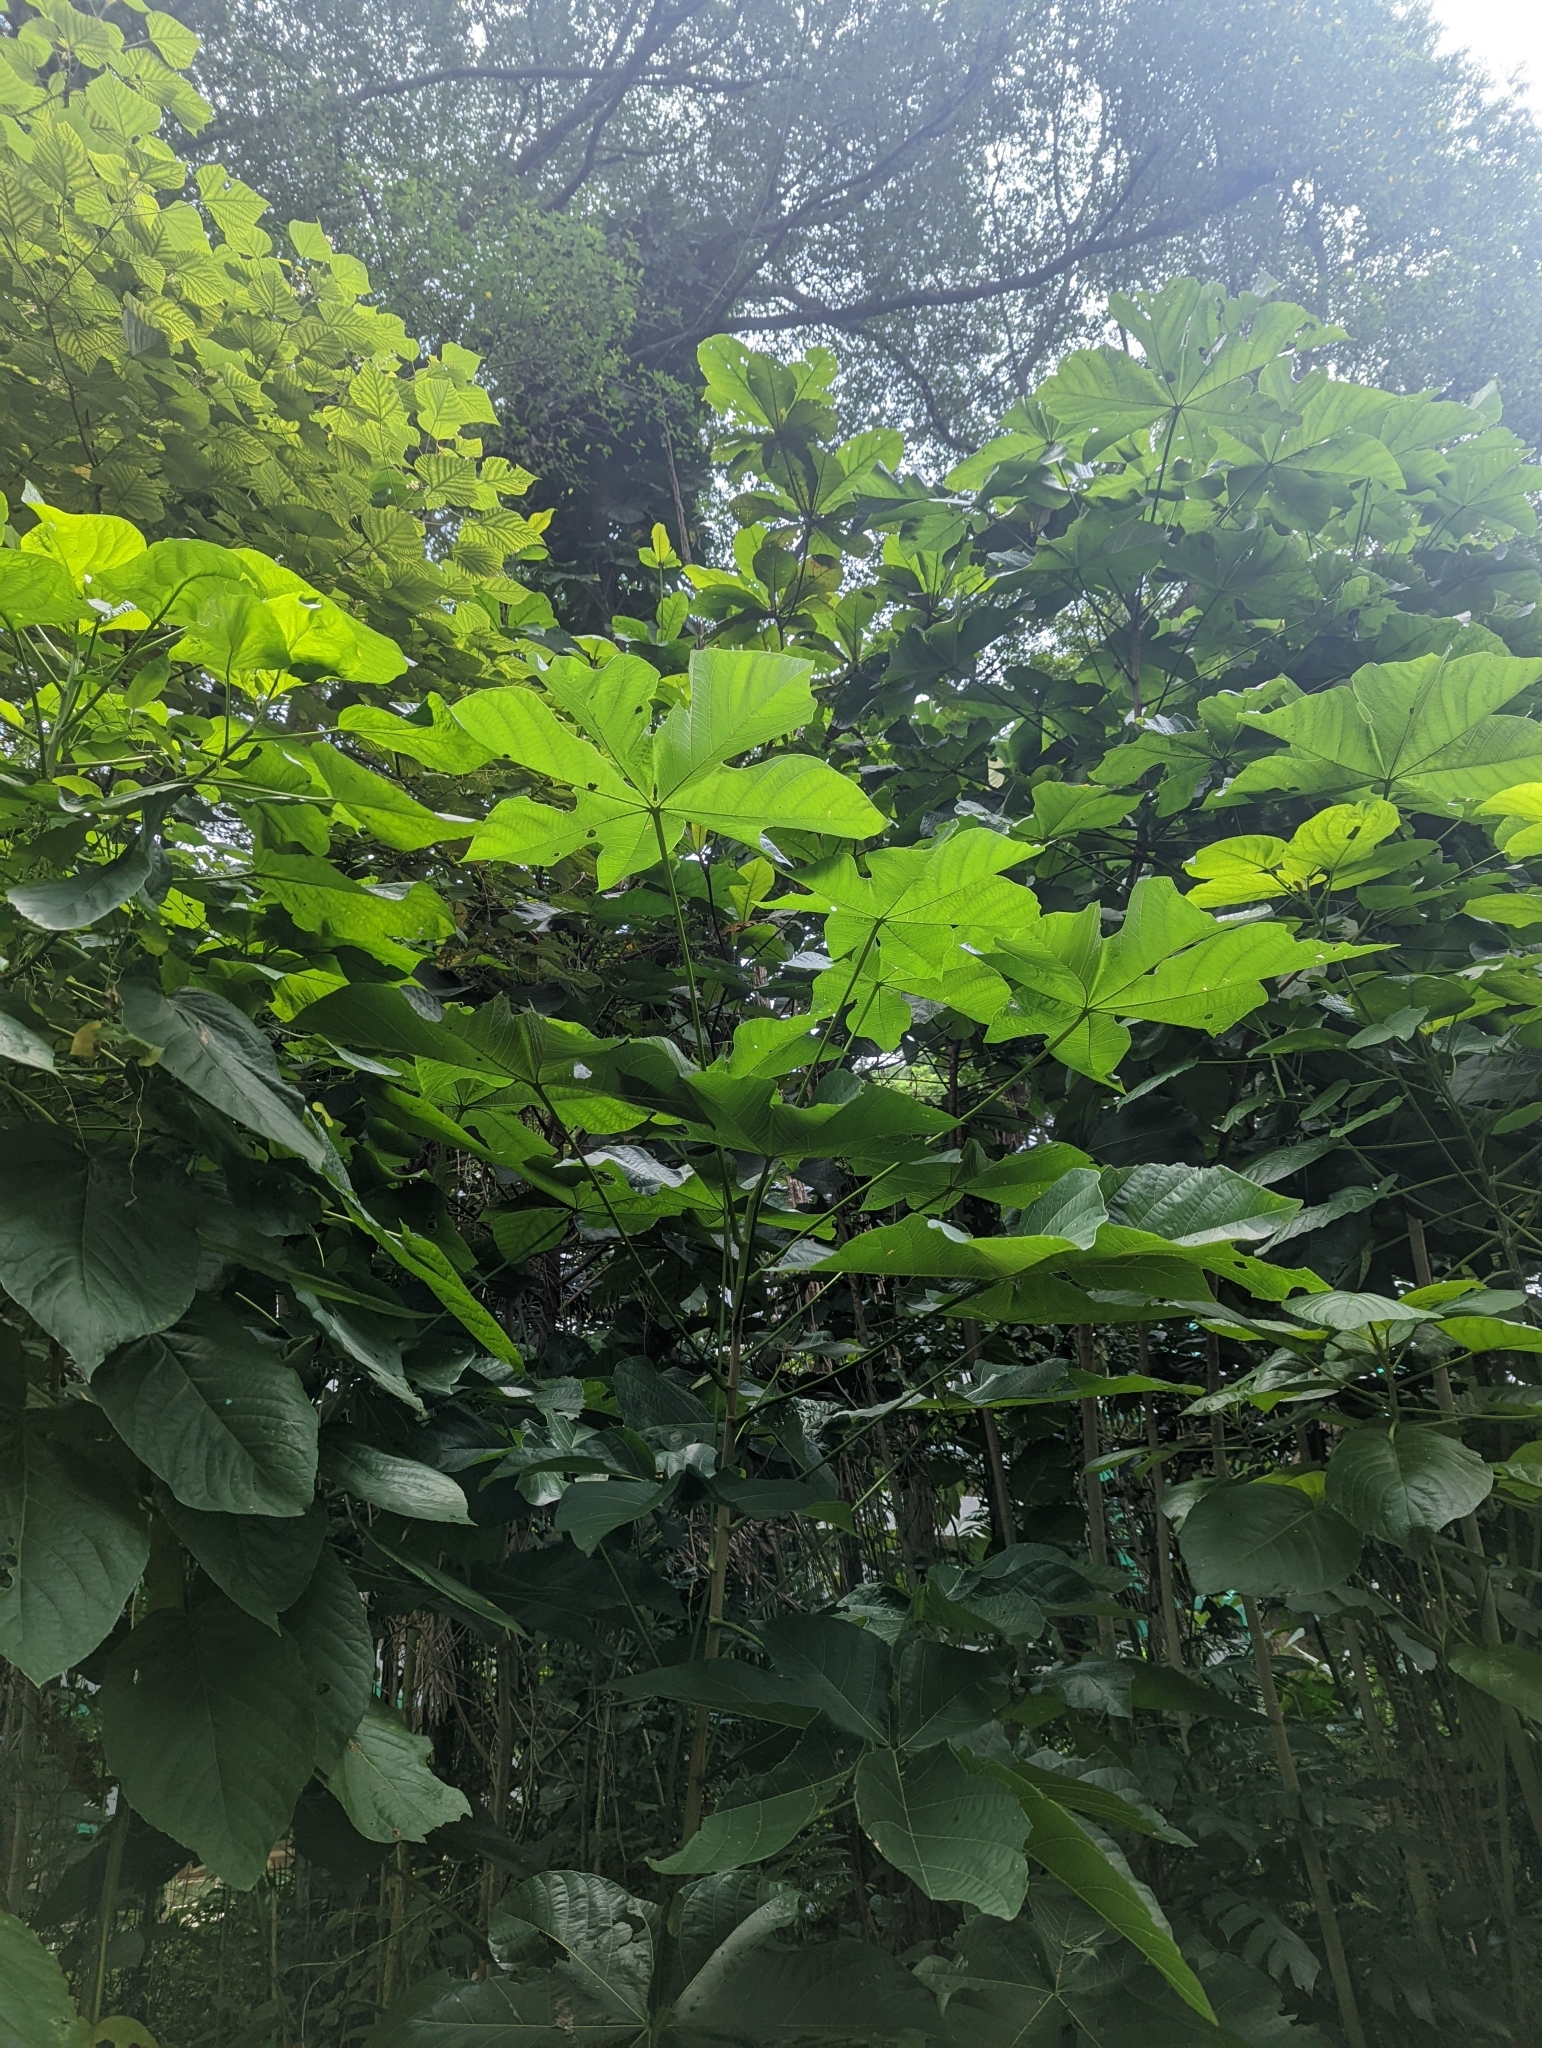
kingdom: Plantae
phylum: Tracheophyta
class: Magnoliopsida
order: Malvales
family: Malvaceae
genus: Sterculia
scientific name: Sterculia apetala
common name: Panama tree
